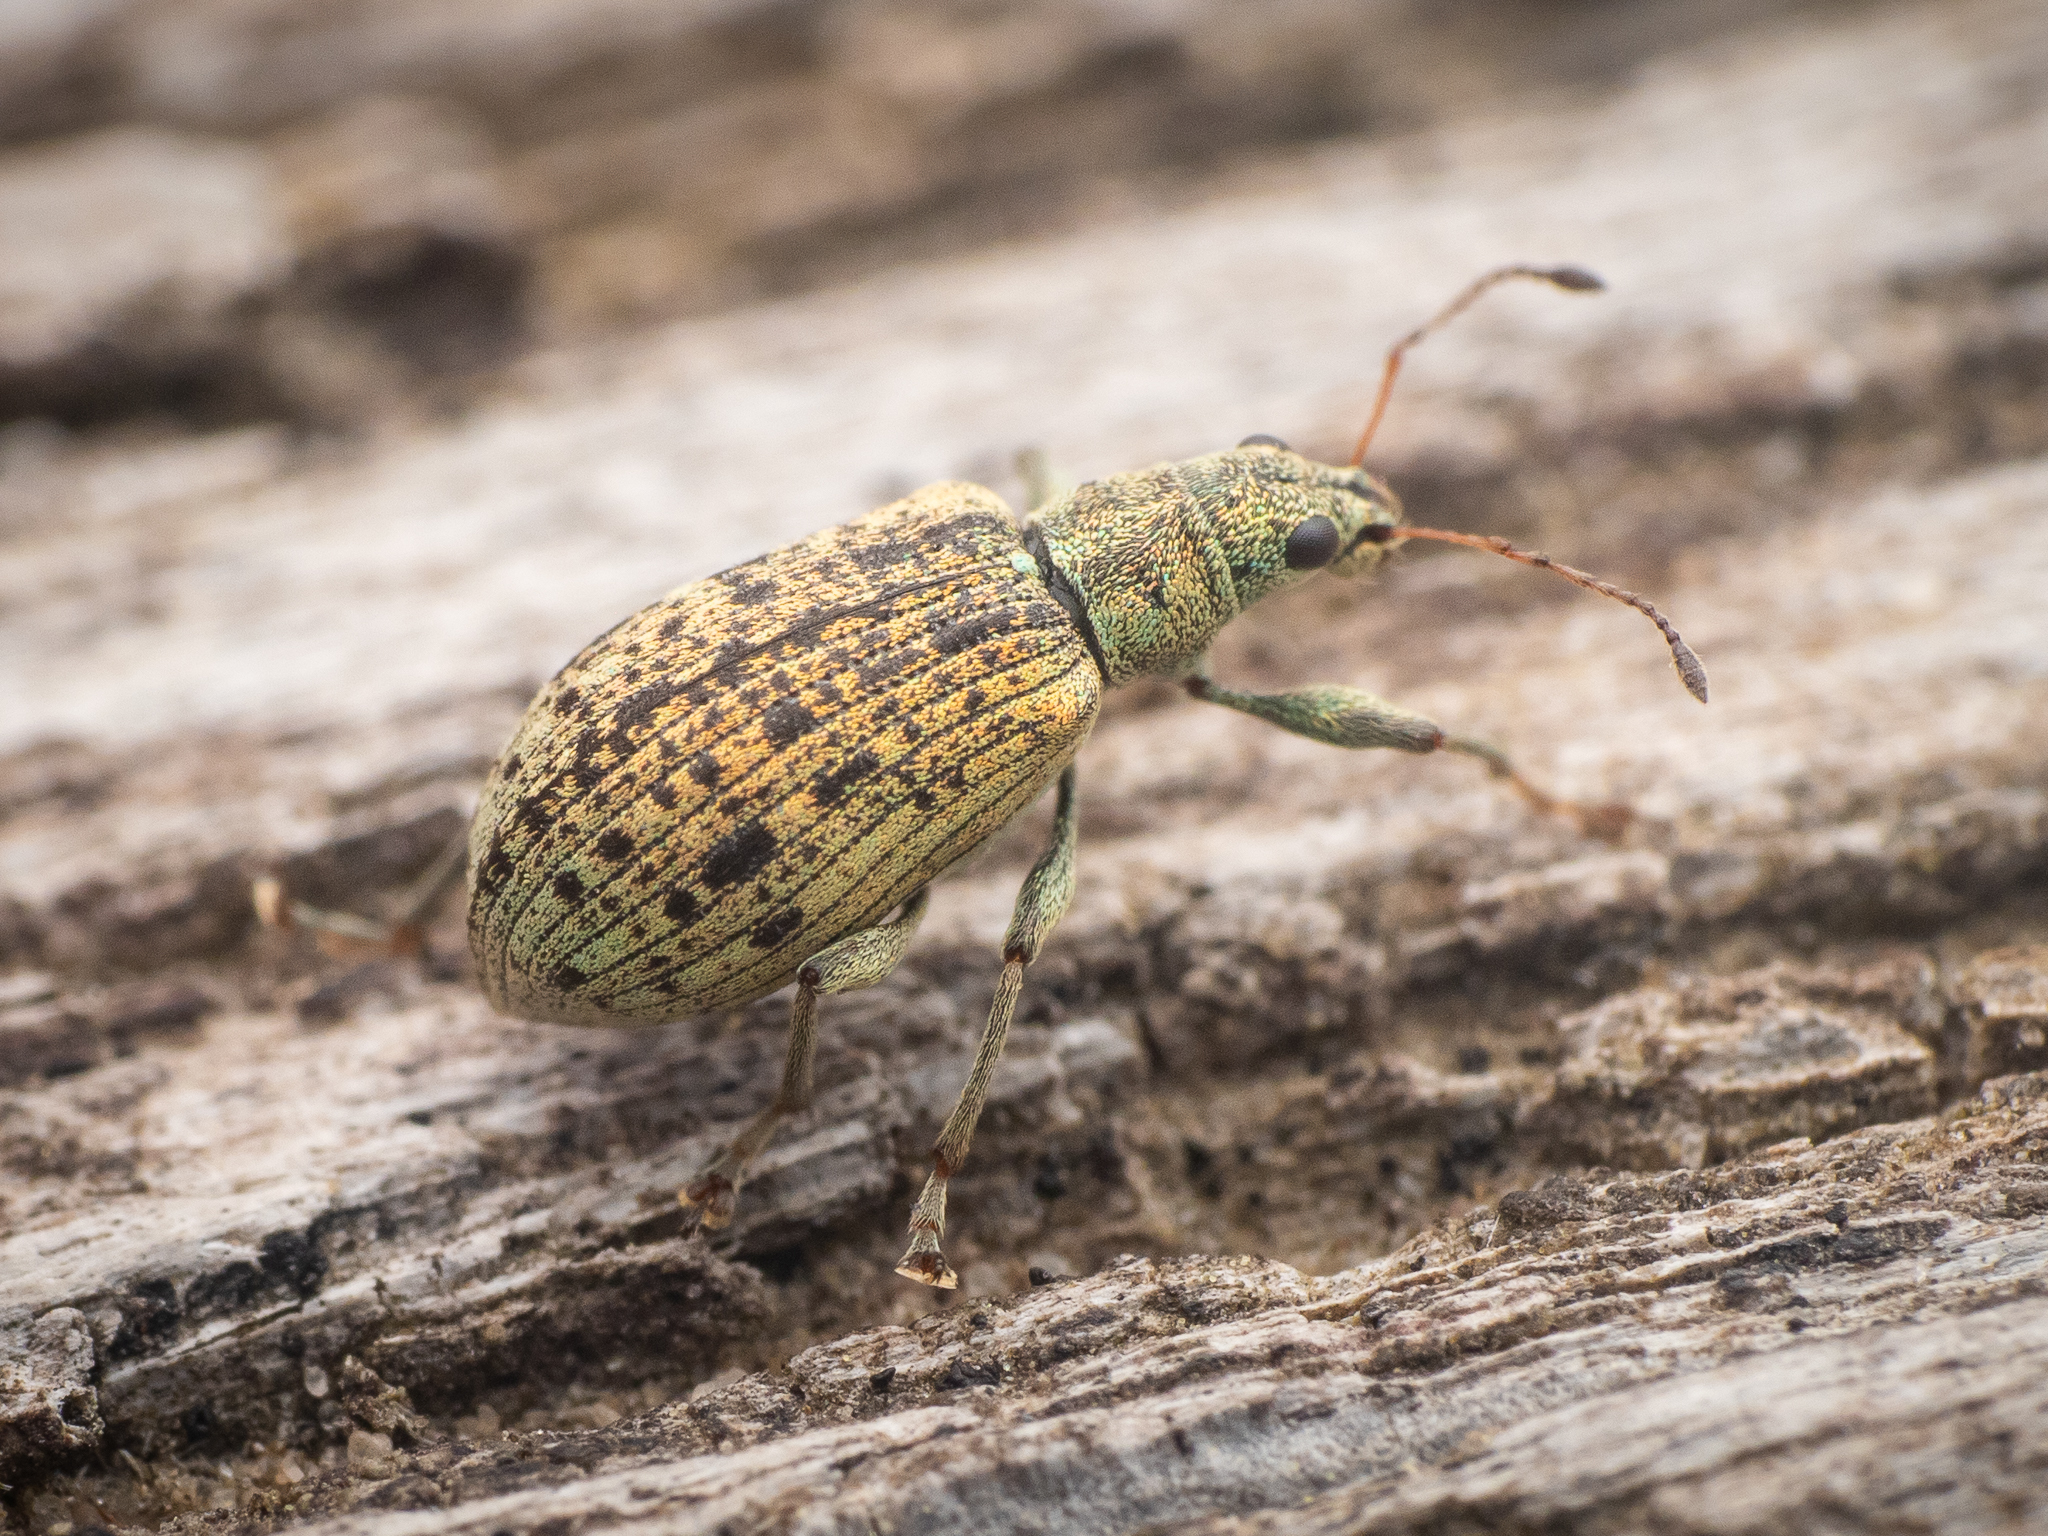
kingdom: Animalia
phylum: Arthropoda
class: Insecta
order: Coleoptera
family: Curculionidae
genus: Polydrusus
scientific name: Polydrusus cervinus
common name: Weevil
